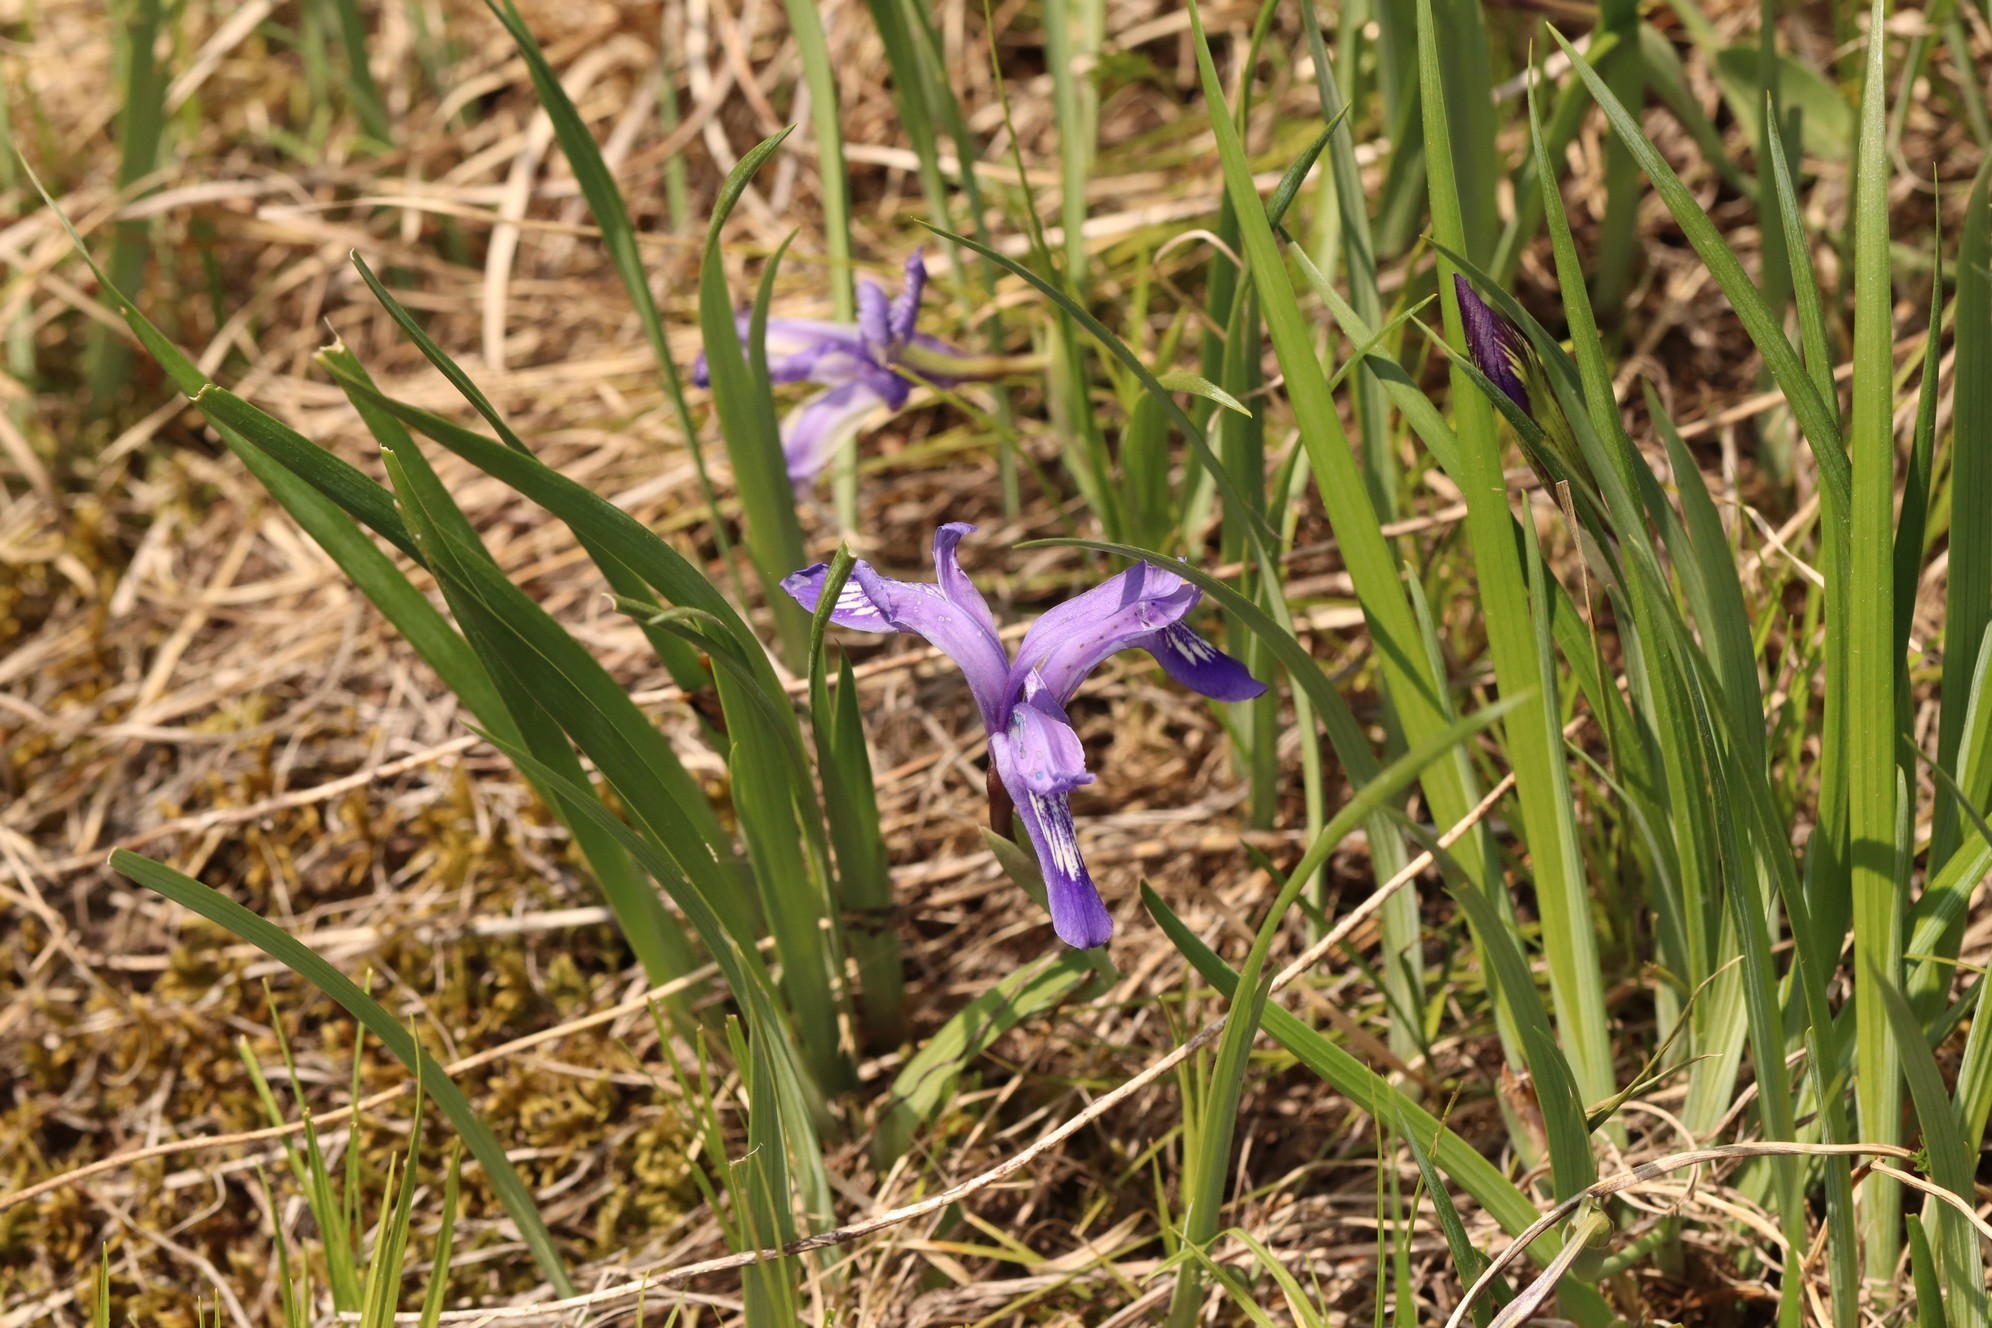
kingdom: Plantae
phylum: Tracheophyta
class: Liliopsida
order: Asparagales
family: Iridaceae
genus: Iris
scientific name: Iris ruthenica
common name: Purple-bract iris
